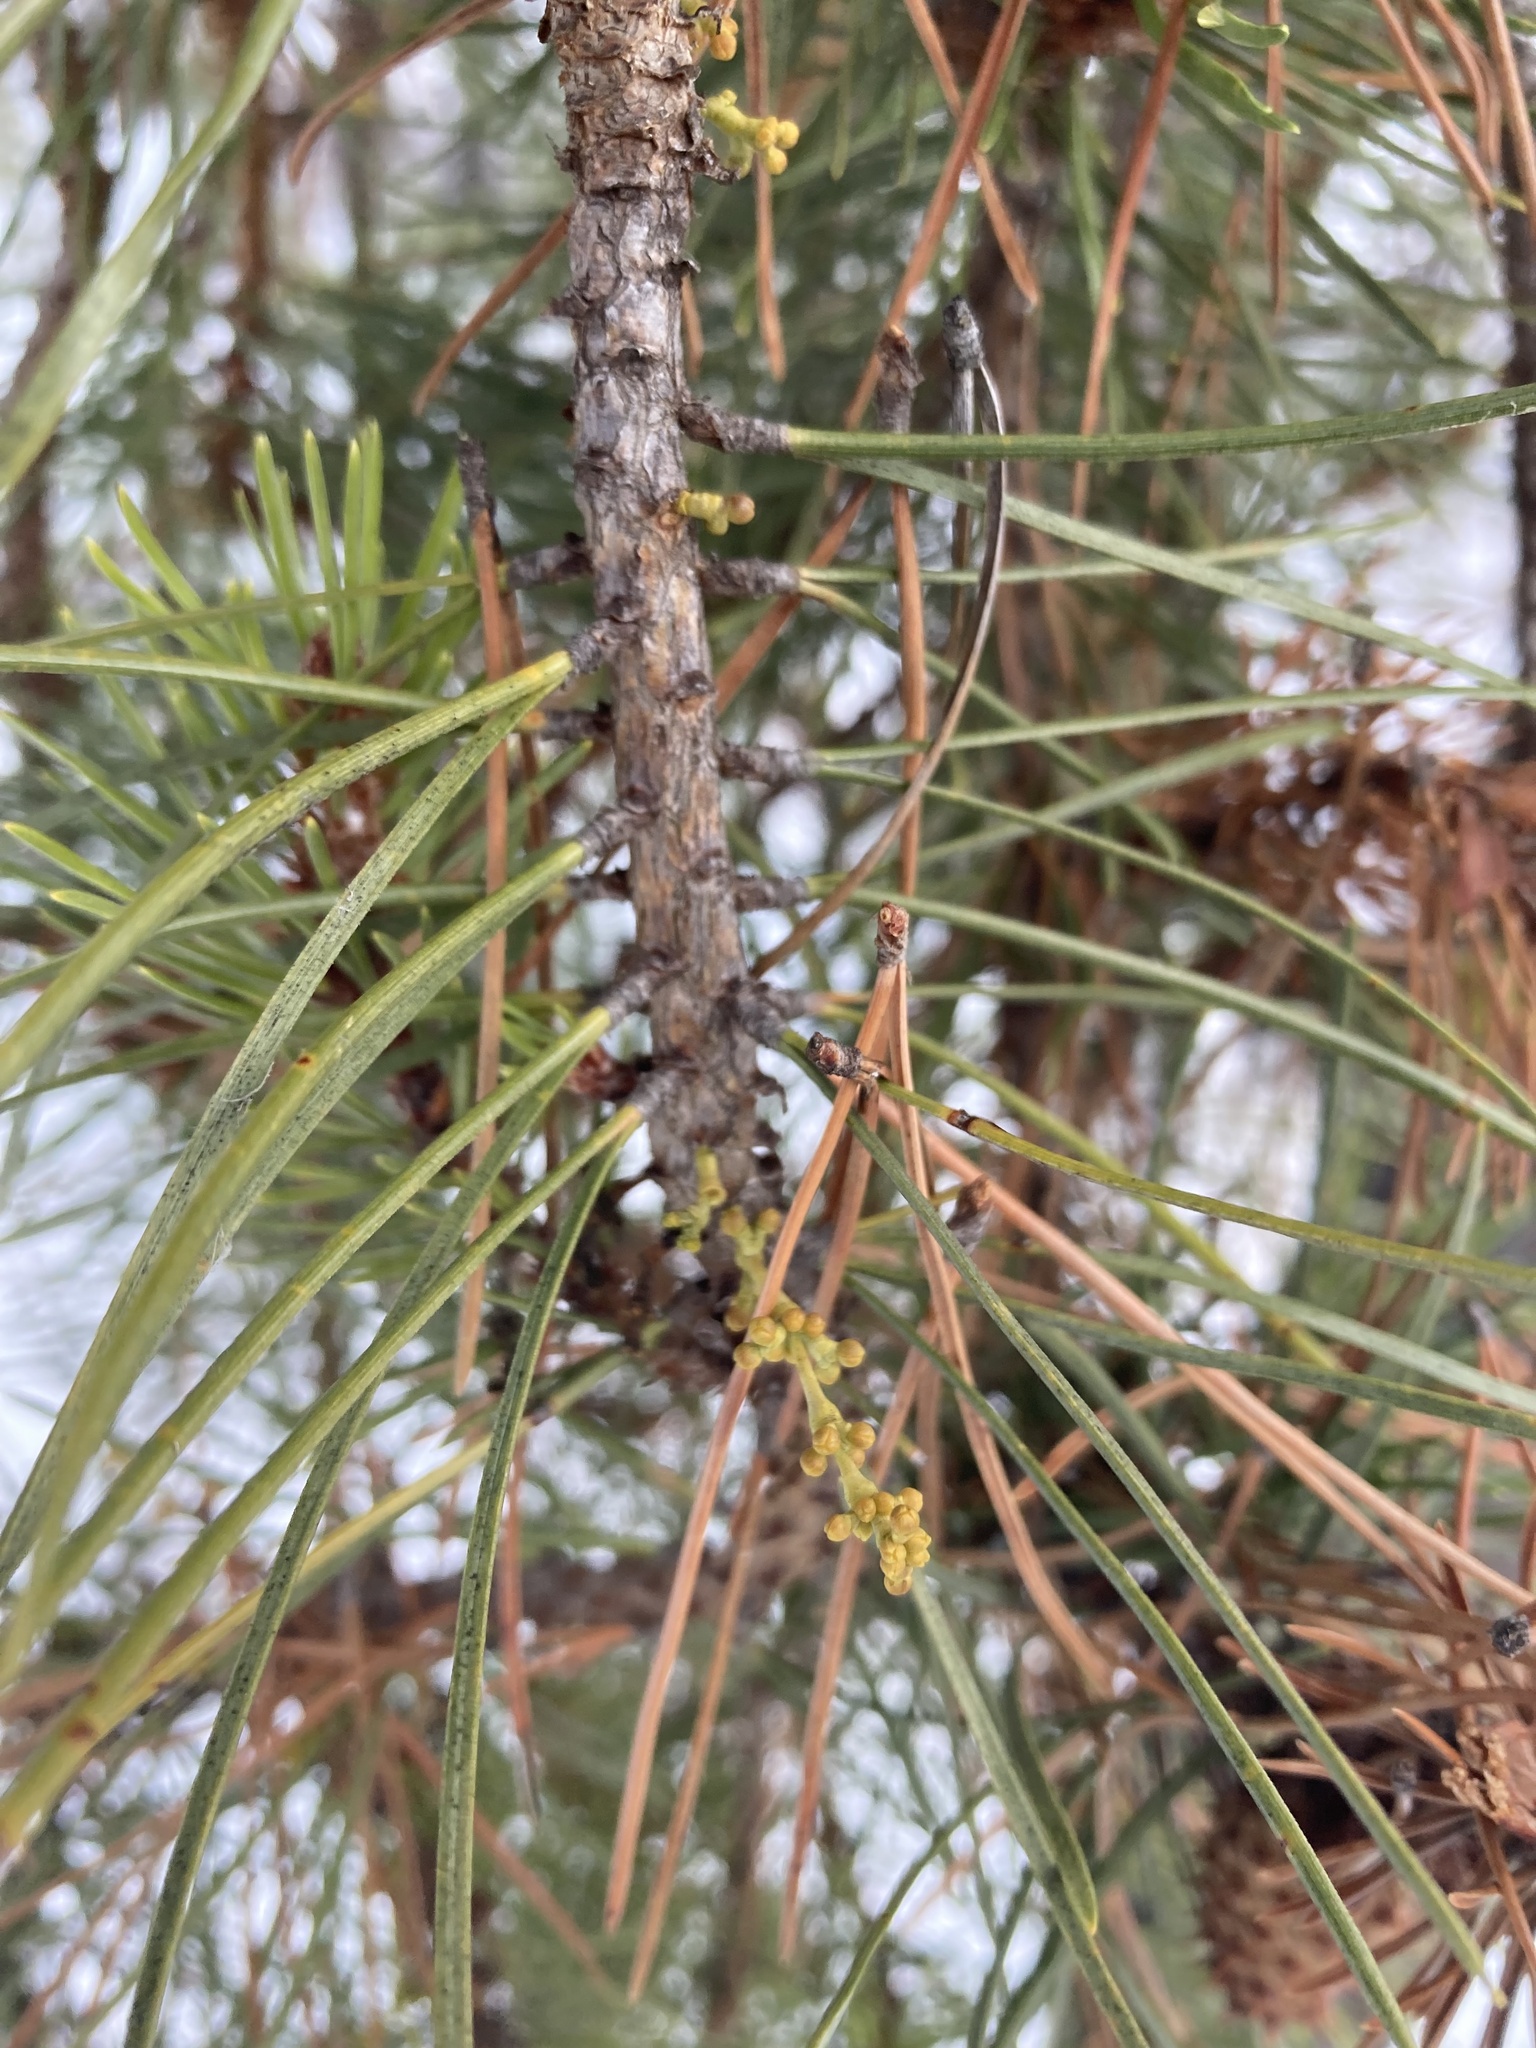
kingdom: Plantae
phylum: Tracheophyta
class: Magnoliopsida
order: Santalales
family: Viscaceae
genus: Arceuthobium
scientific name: Arceuthobium americanum
